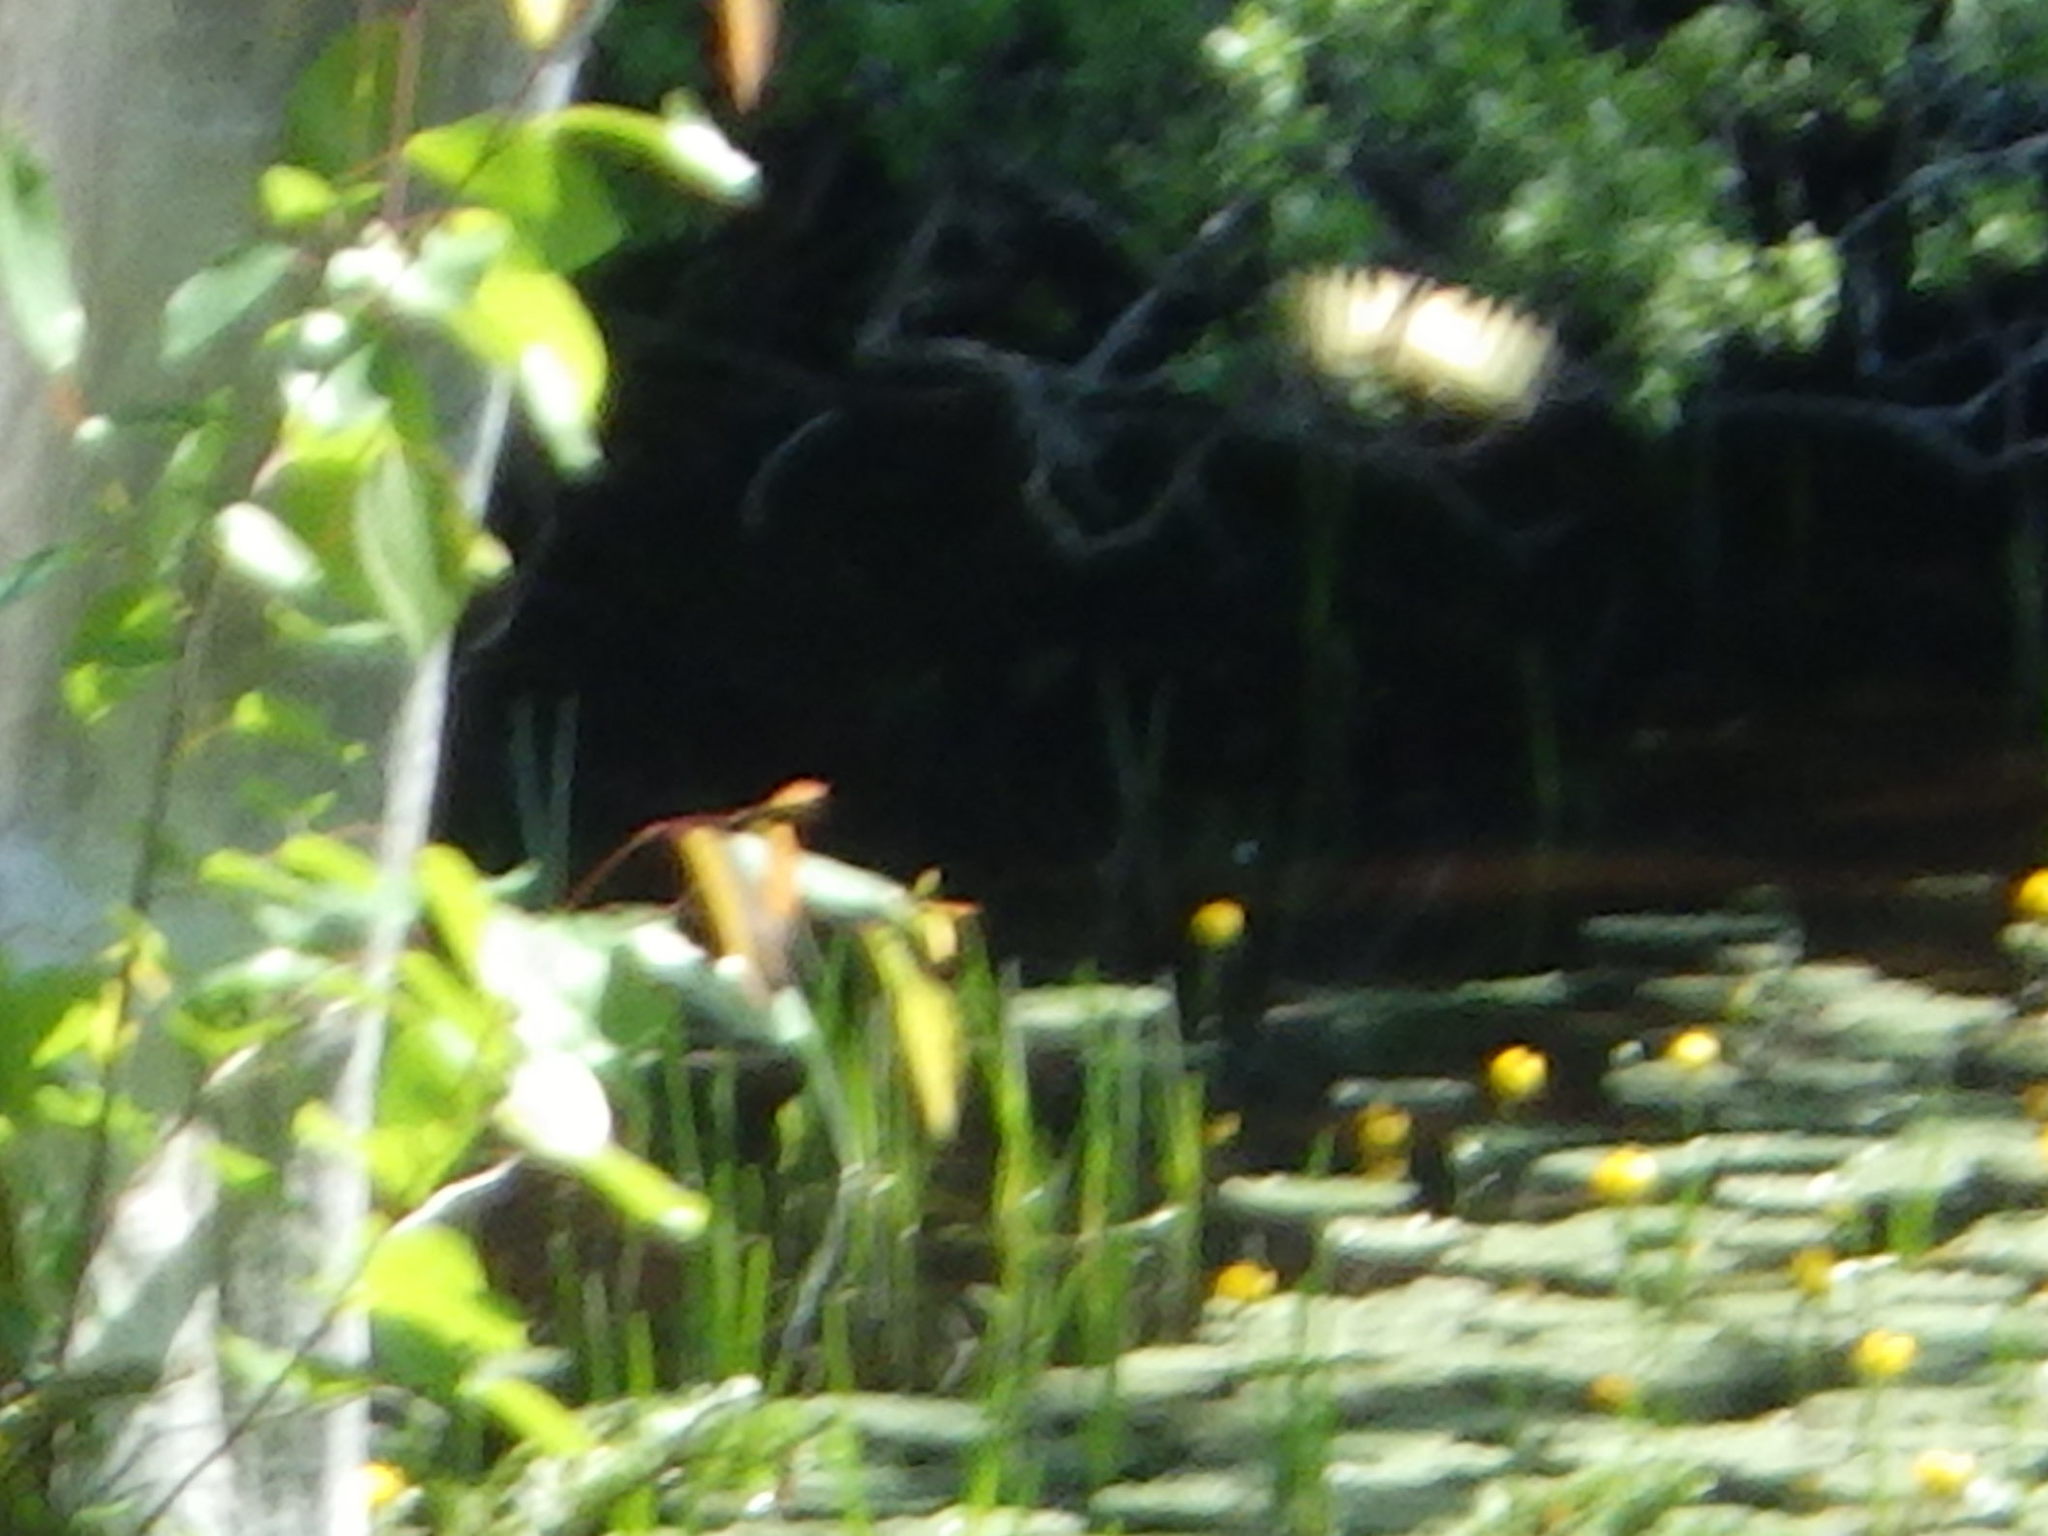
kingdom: Animalia
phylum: Arthropoda
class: Insecta
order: Lepidoptera
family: Papilionidae
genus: Papilio
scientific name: Papilio canadensis
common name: Canadian tiger swallowtail
